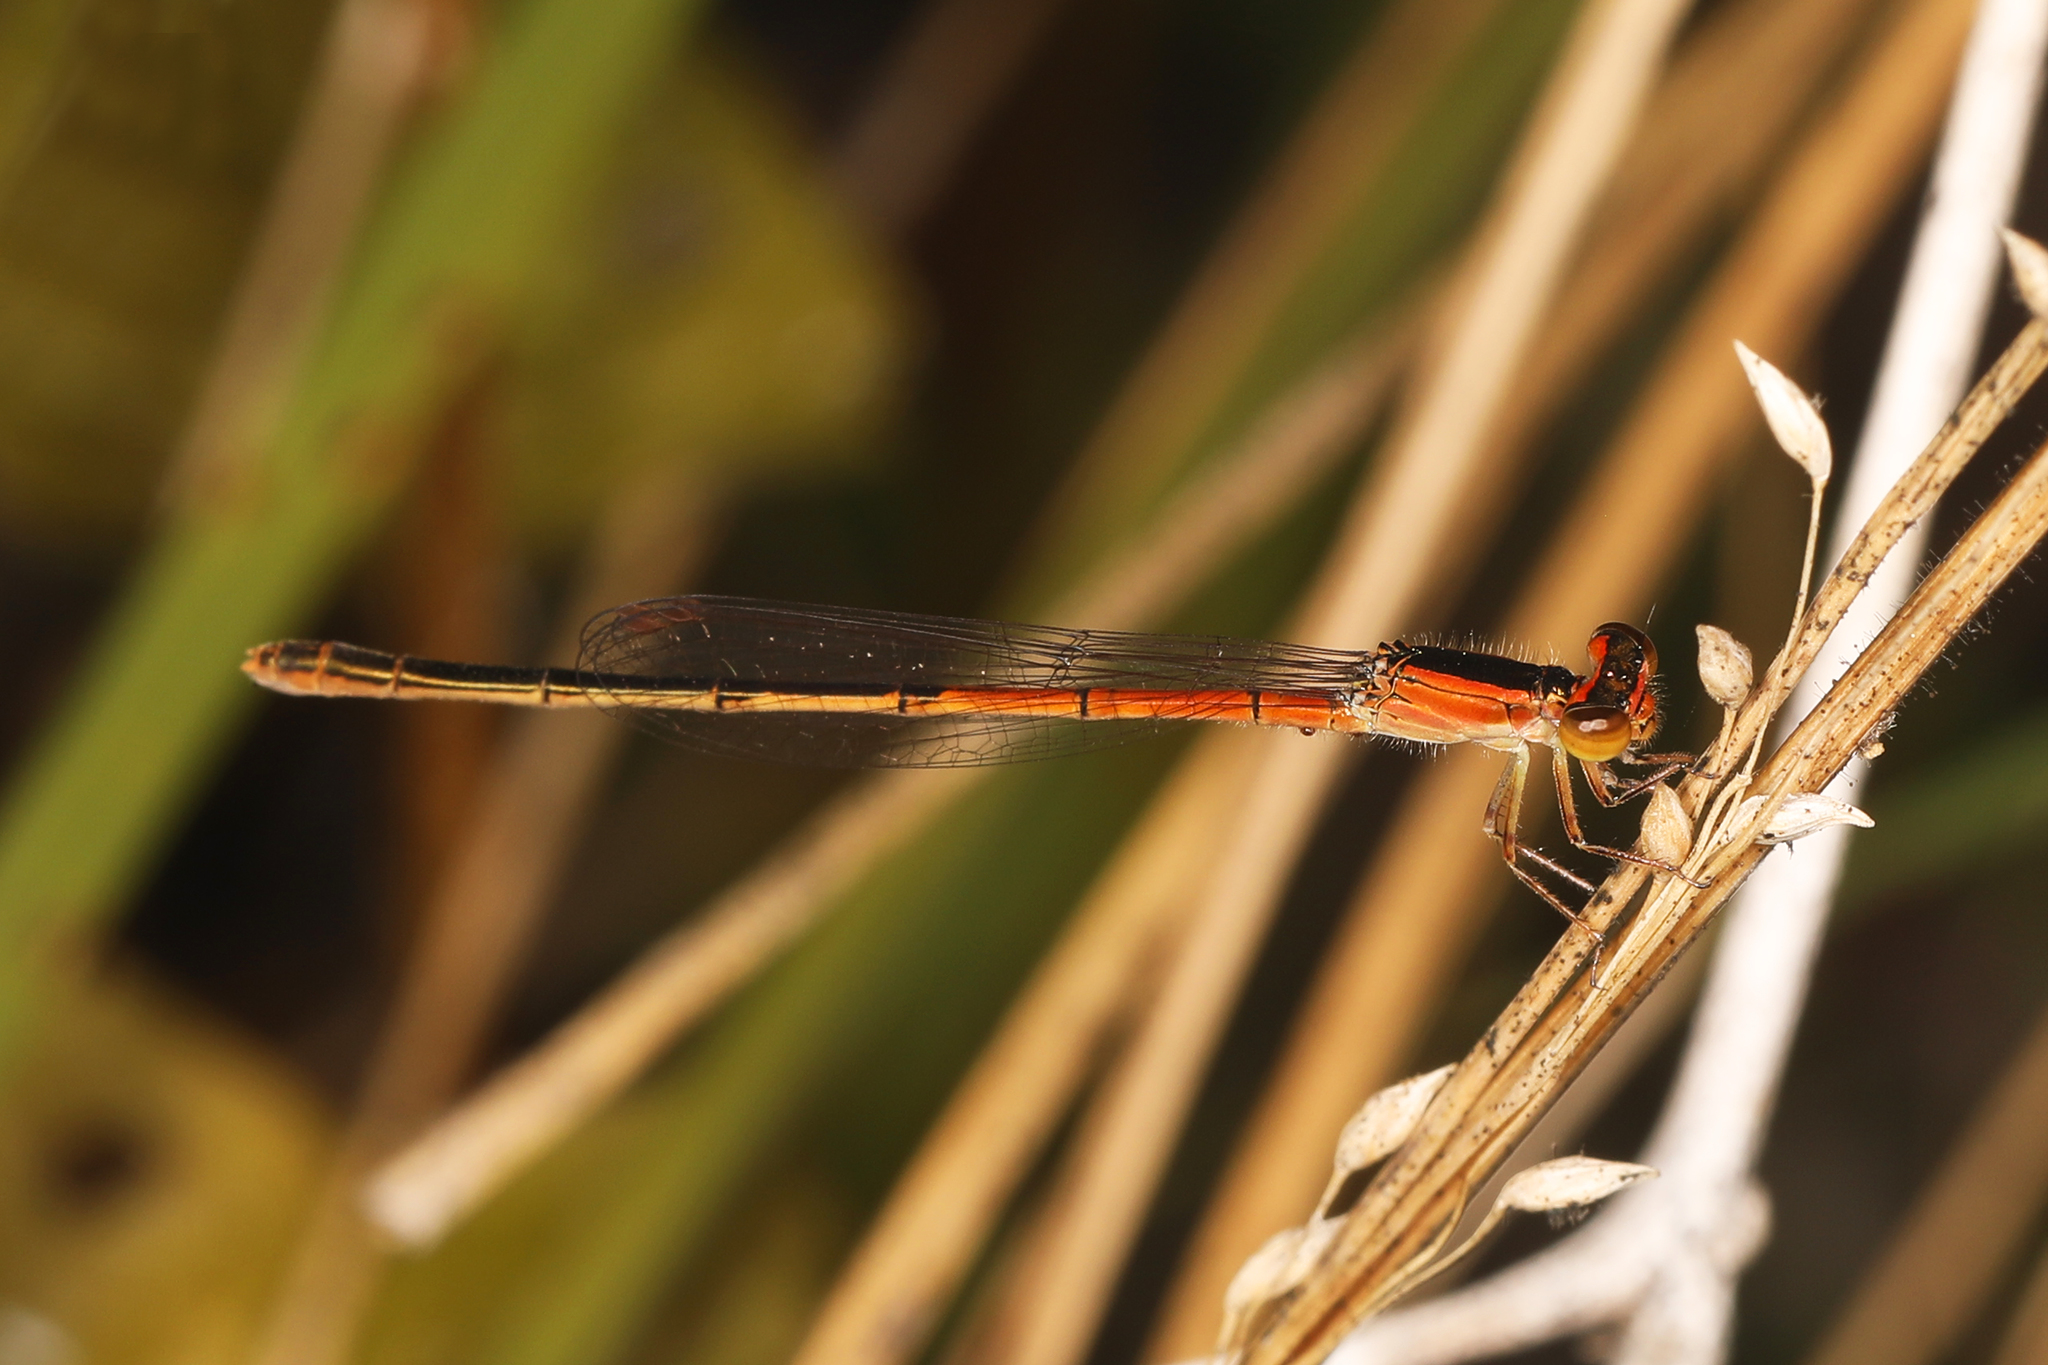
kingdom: Animalia
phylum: Arthropoda
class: Insecta
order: Odonata
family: Coenagrionidae
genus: Ischnura
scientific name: Ischnura hastata
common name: Citrine forktail
